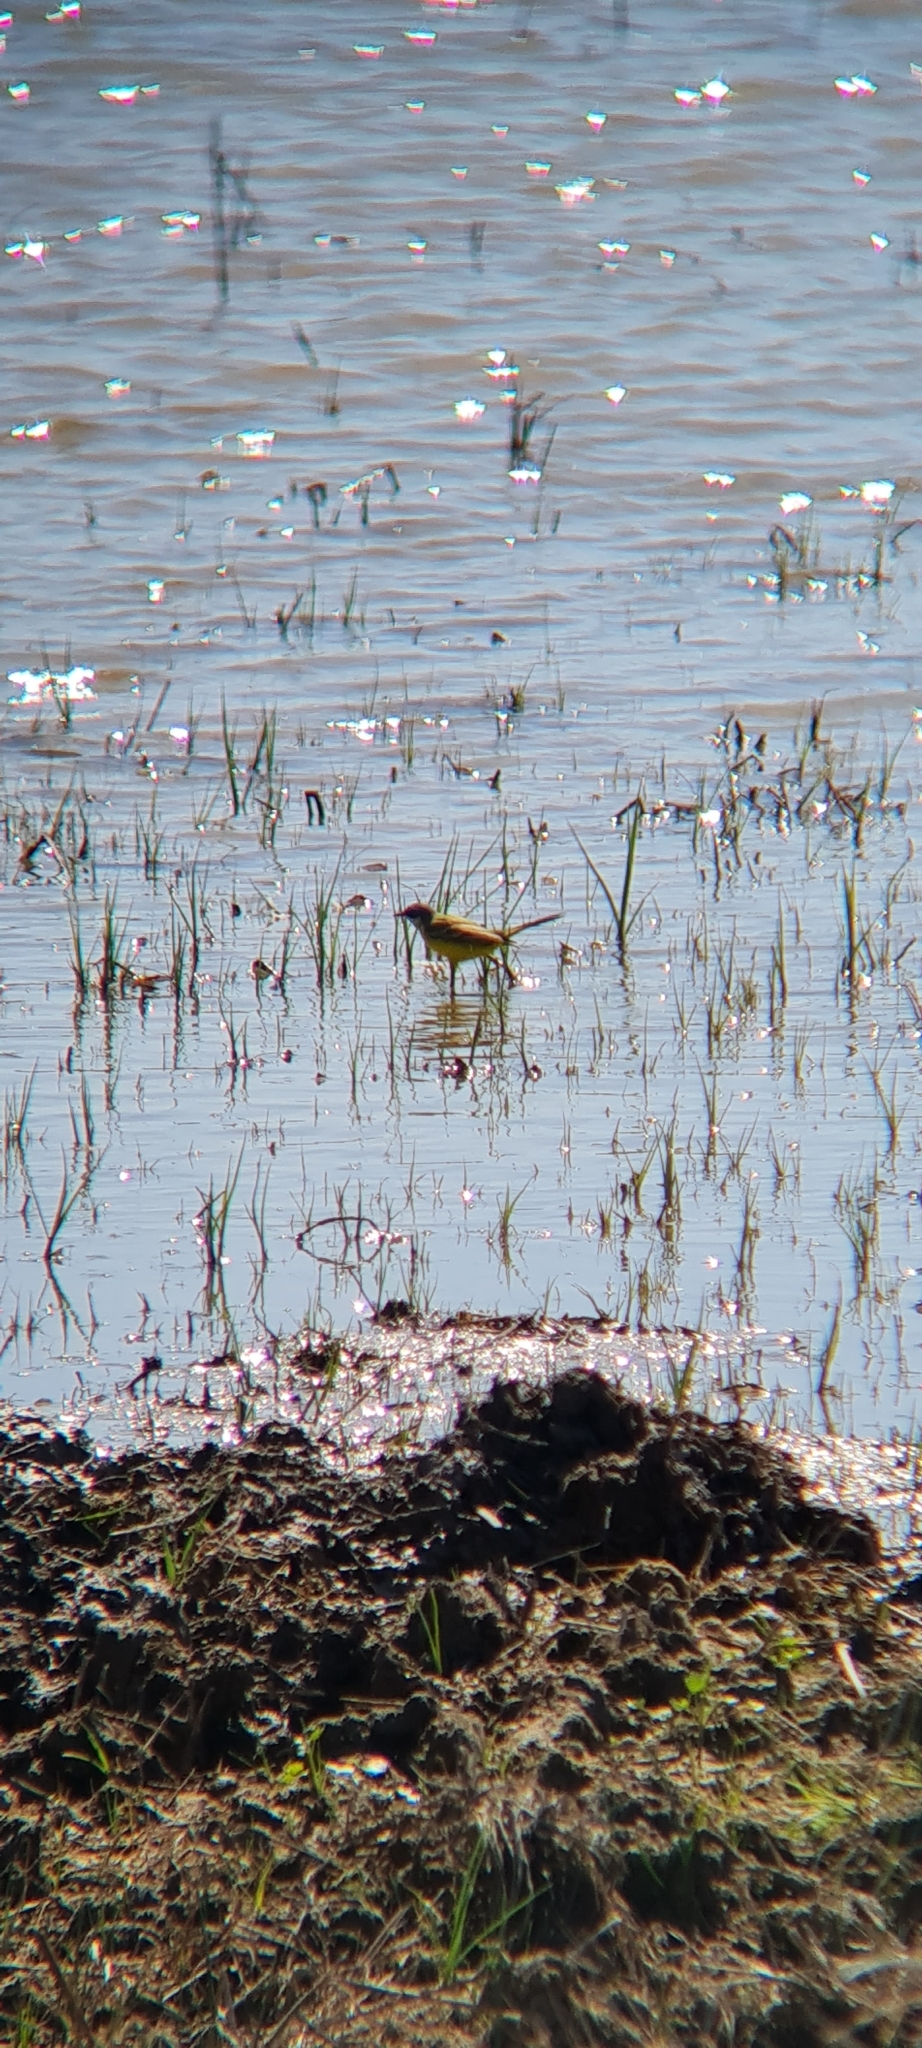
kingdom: Animalia
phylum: Chordata
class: Aves
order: Passeriformes
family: Motacillidae
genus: Motacilla
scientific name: Motacilla flava
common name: Western yellow wagtail
